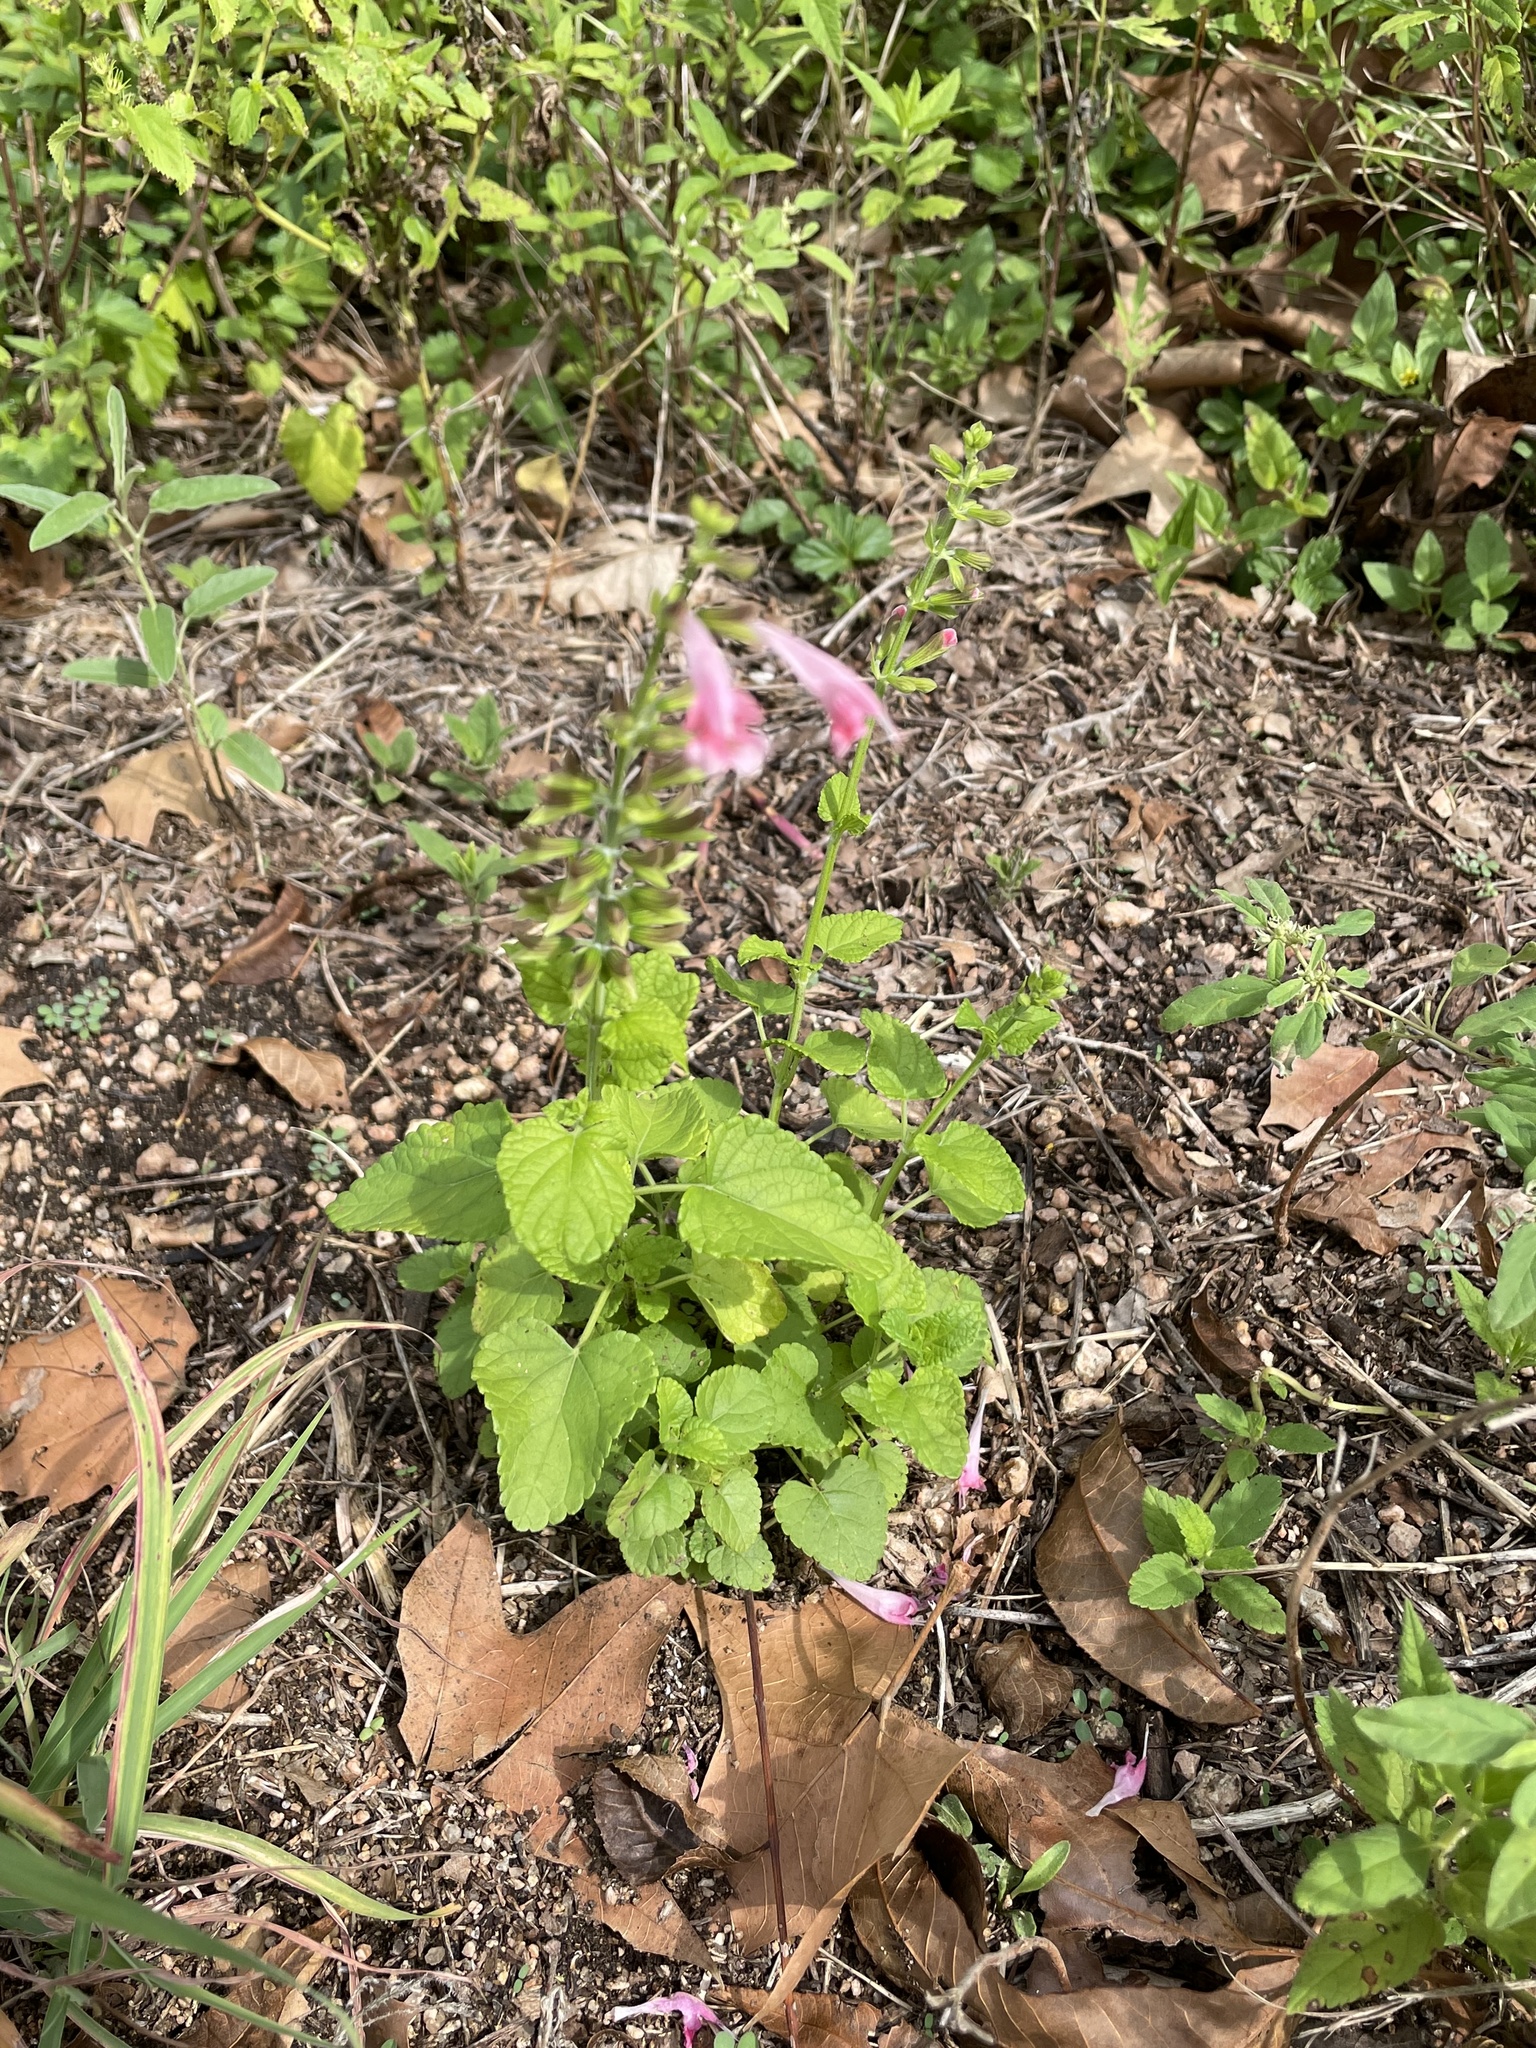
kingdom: Plantae
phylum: Tracheophyta
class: Magnoliopsida
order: Lamiales
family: Lamiaceae
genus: Salvia
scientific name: Salvia coccinea
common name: Blood sage
